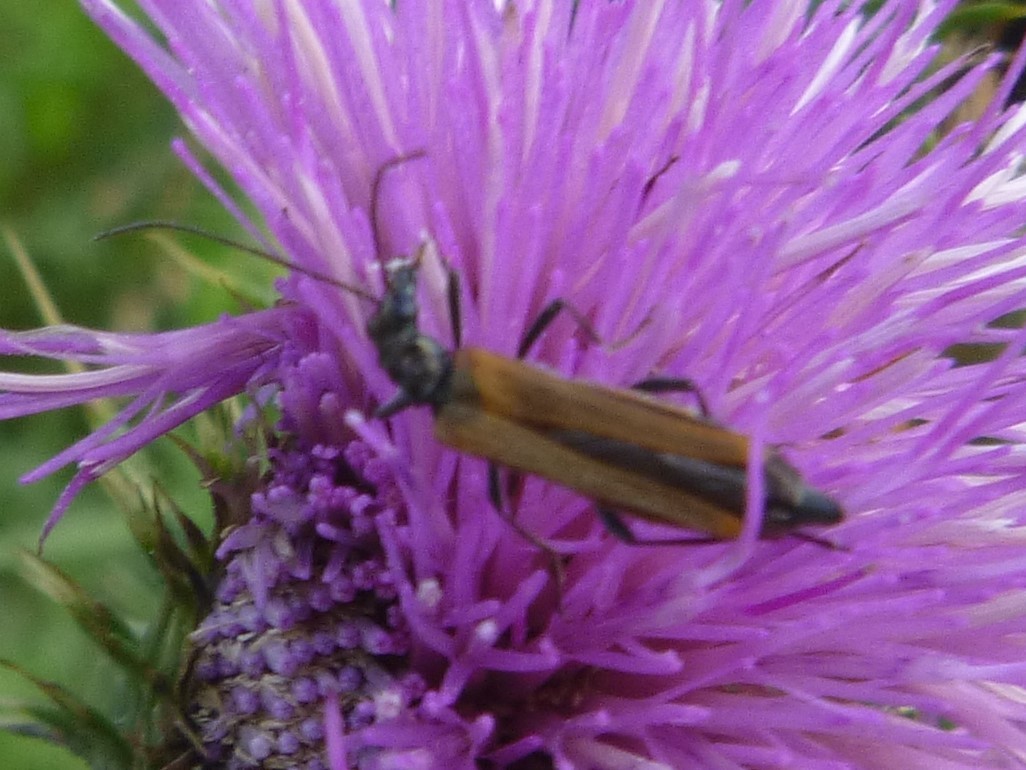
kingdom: Animalia
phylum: Arthropoda
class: Insecta
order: Coleoptera
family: Oedemeridae
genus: Oedemera
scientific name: Oedemera femorata
